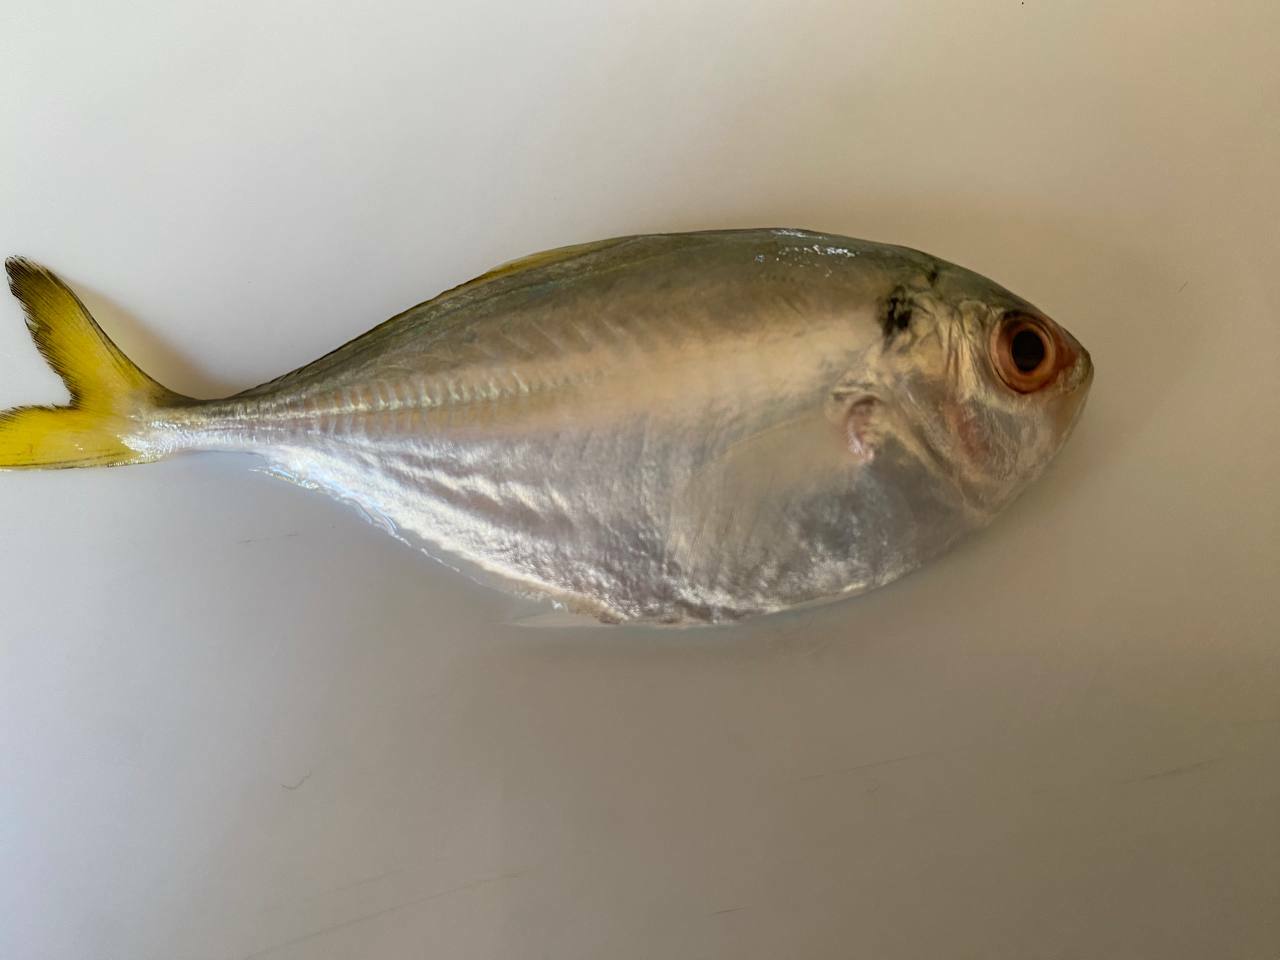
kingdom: Animalia
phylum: Chordata
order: Perciformes
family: Carangidae
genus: Alepes
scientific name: Alepes kleinii
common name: Banded scad
